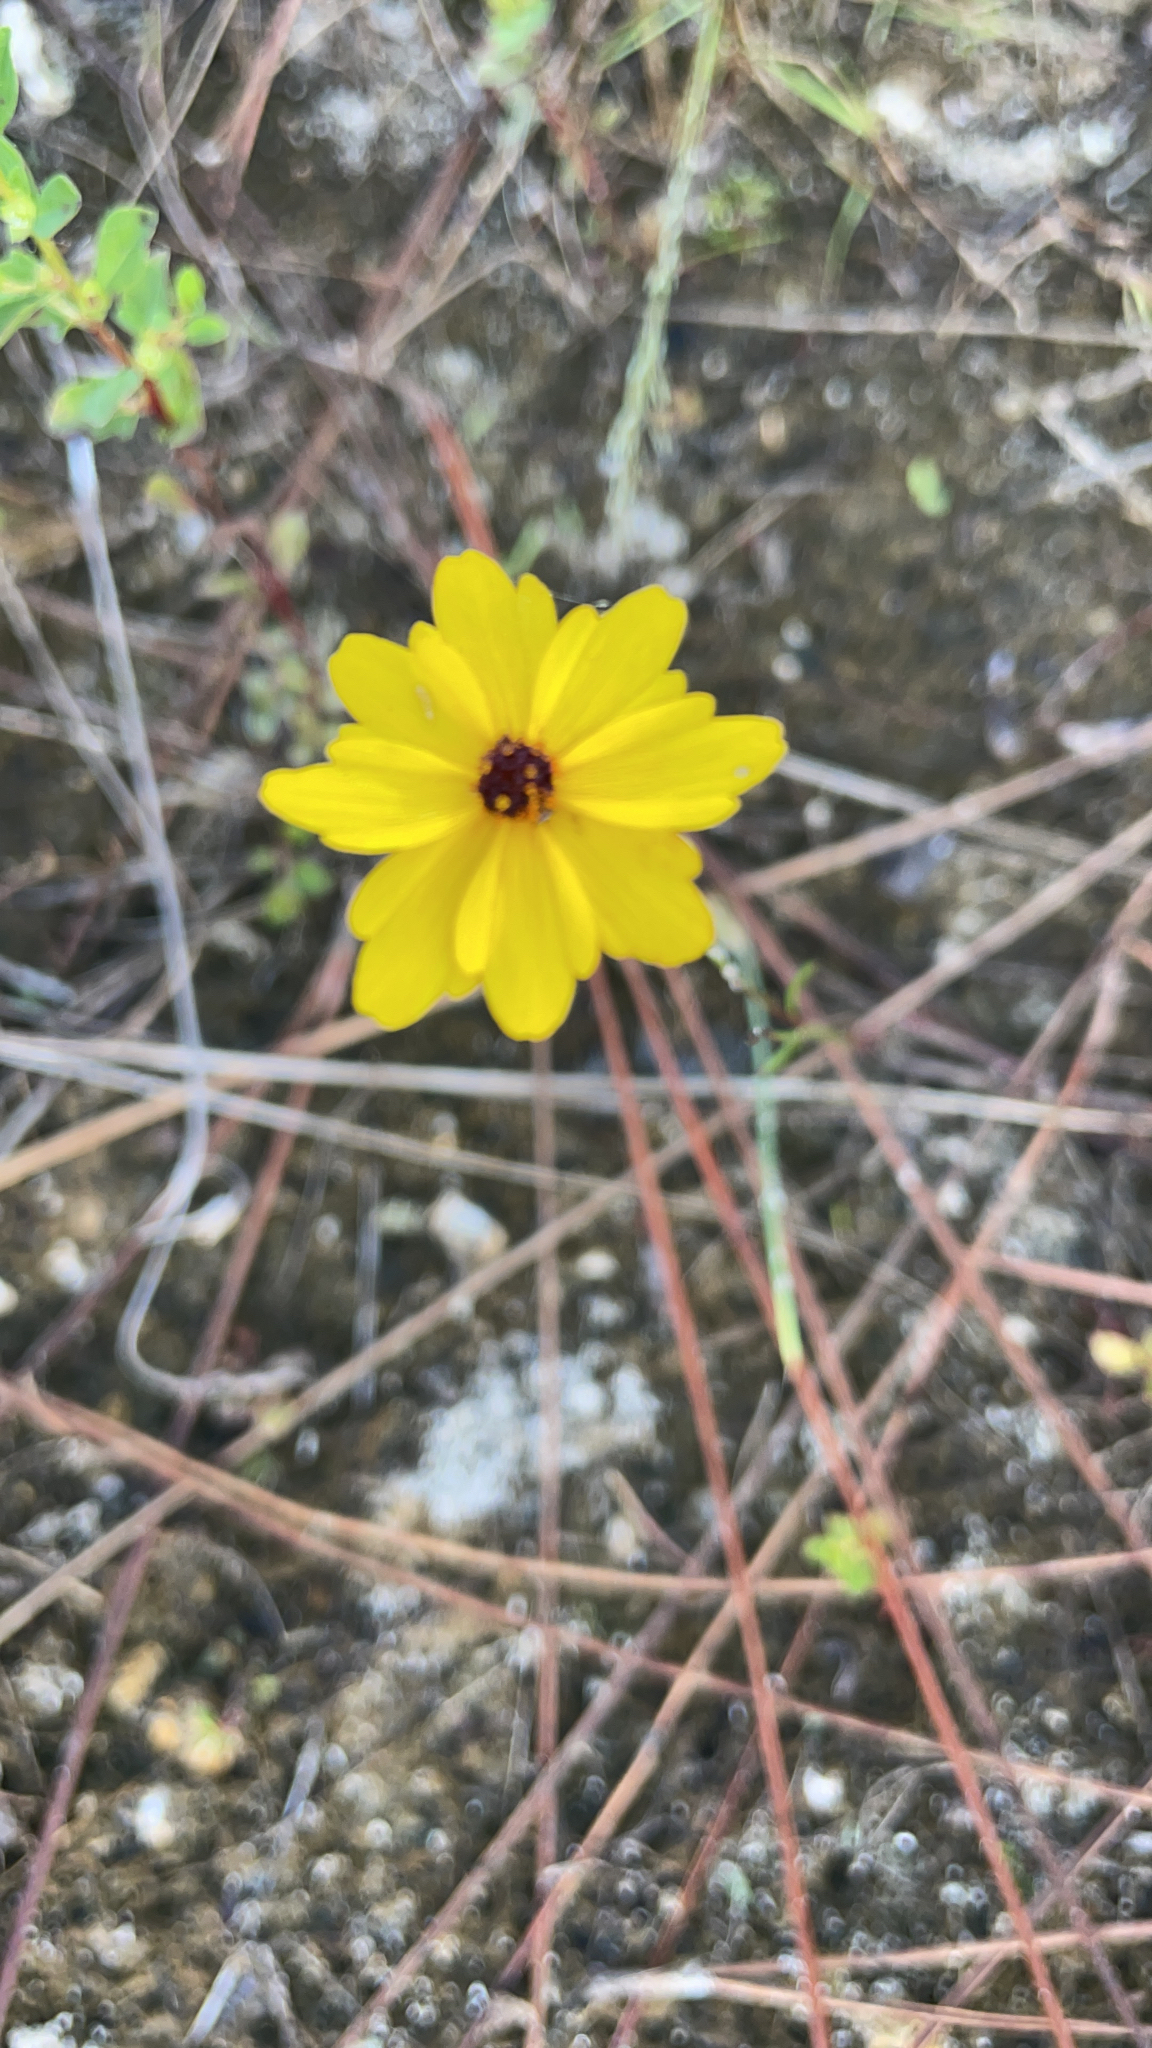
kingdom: Plantae
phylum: Tracheophyta
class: Magnoliopsida
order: Asterales
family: Asteraceae
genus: Coreopsis
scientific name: Coreopsis leavenworthii
